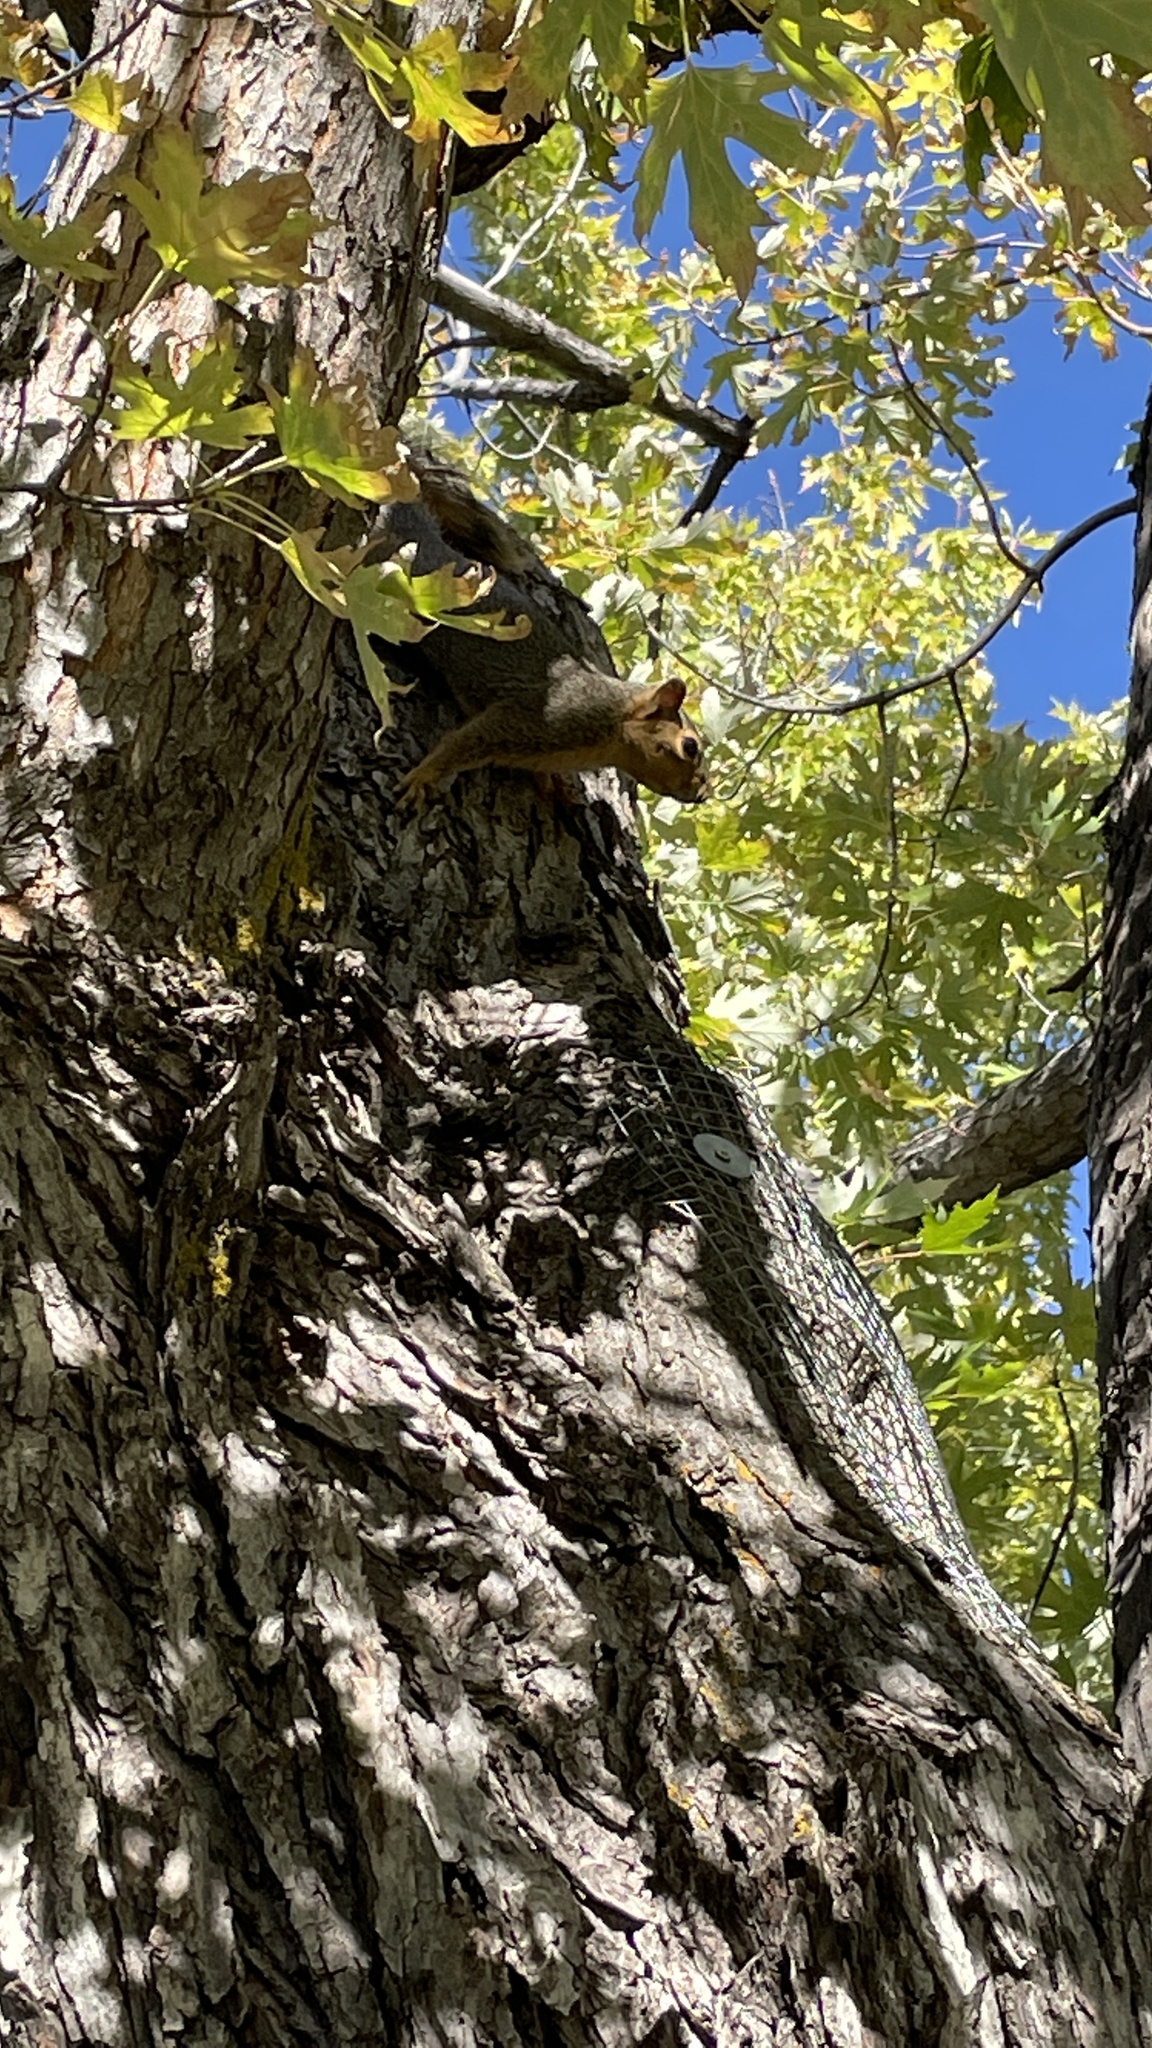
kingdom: Animalia
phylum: Chordata
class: Mammalia
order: Rodentia
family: Sciuridae
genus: Sciurus
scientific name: Sciurus niger
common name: Fox squirrel
